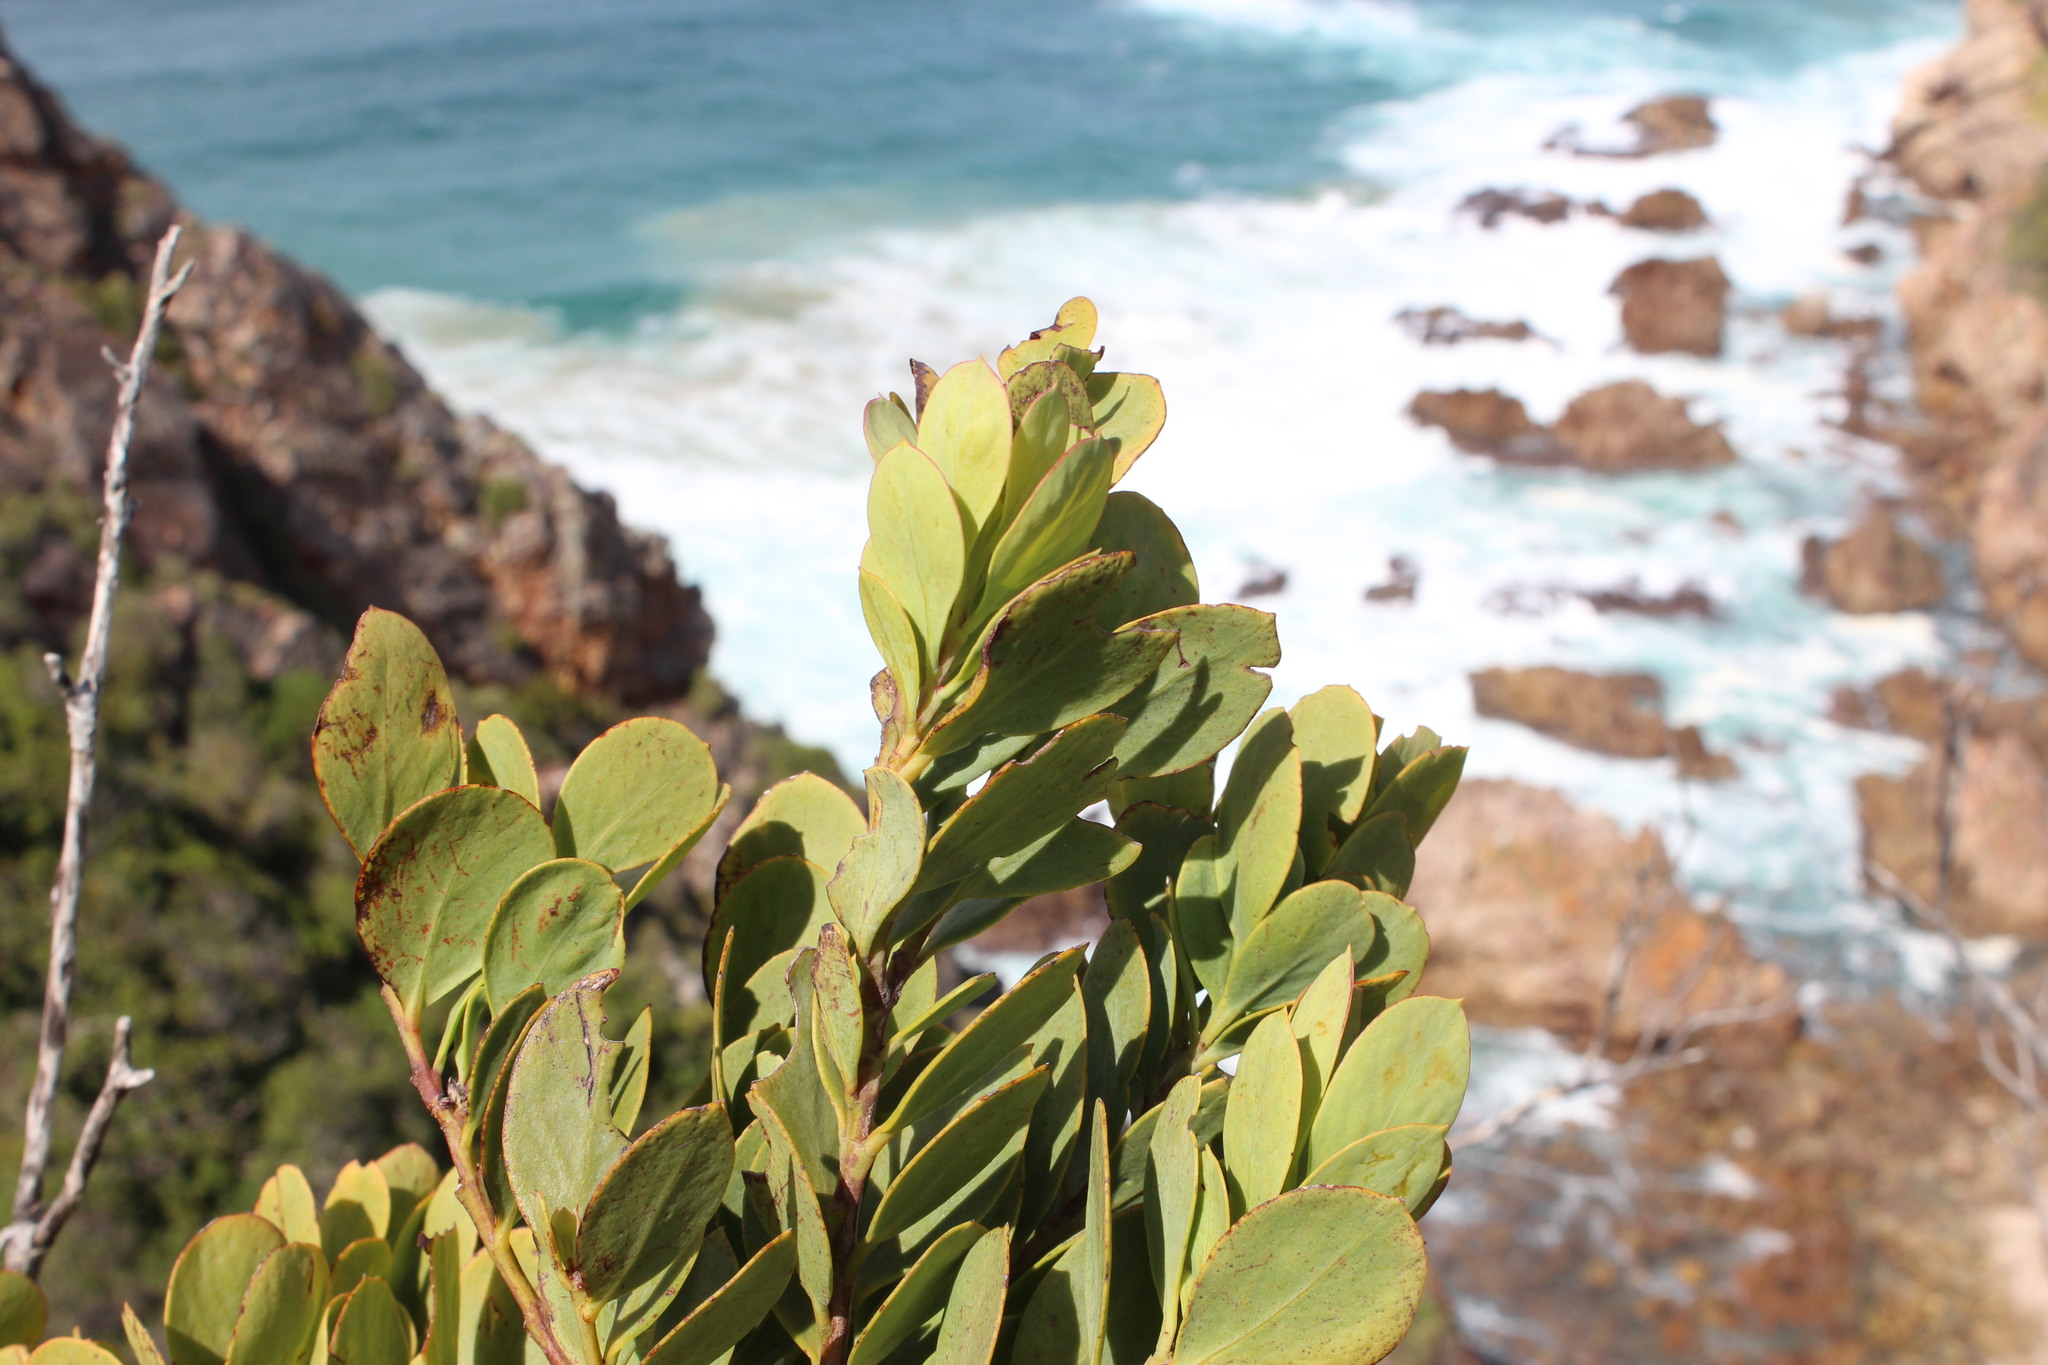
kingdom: Plantae
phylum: Tracheophyta
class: Magnoliopsida
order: Santalales
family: Santalaceae
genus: Osyris
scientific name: Osyris compressa
